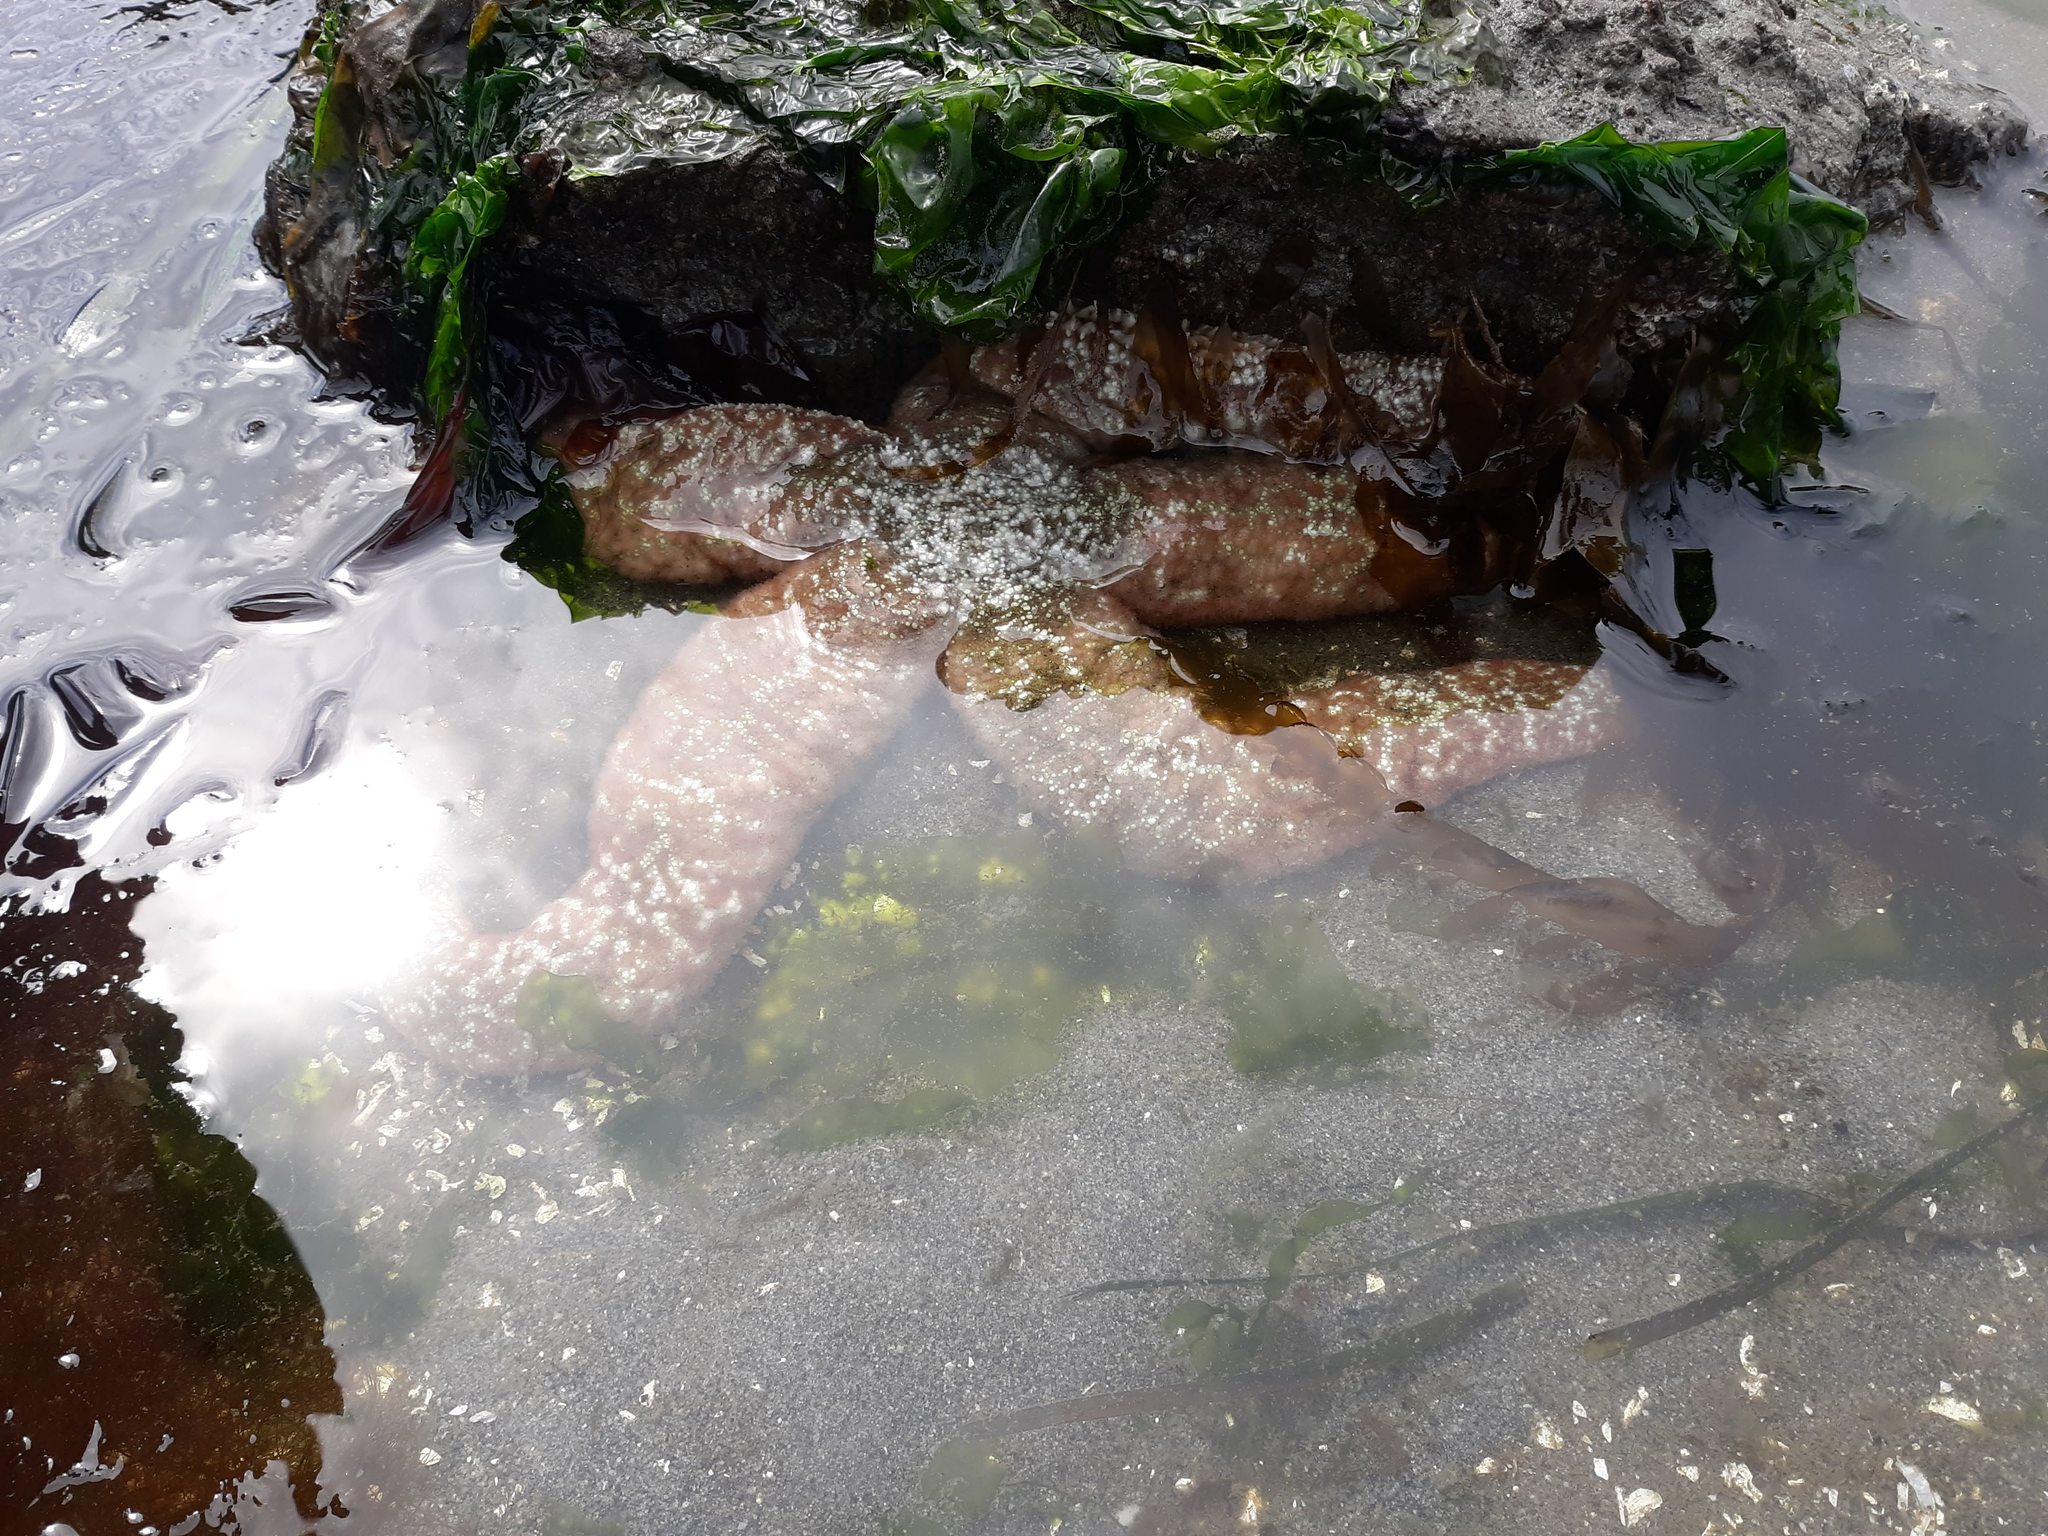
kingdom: Animalia
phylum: Echinodermata
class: Asteroidea
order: Forcipulatida
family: Asteriidae
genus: Evasterias
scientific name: Evasterias troschelii
